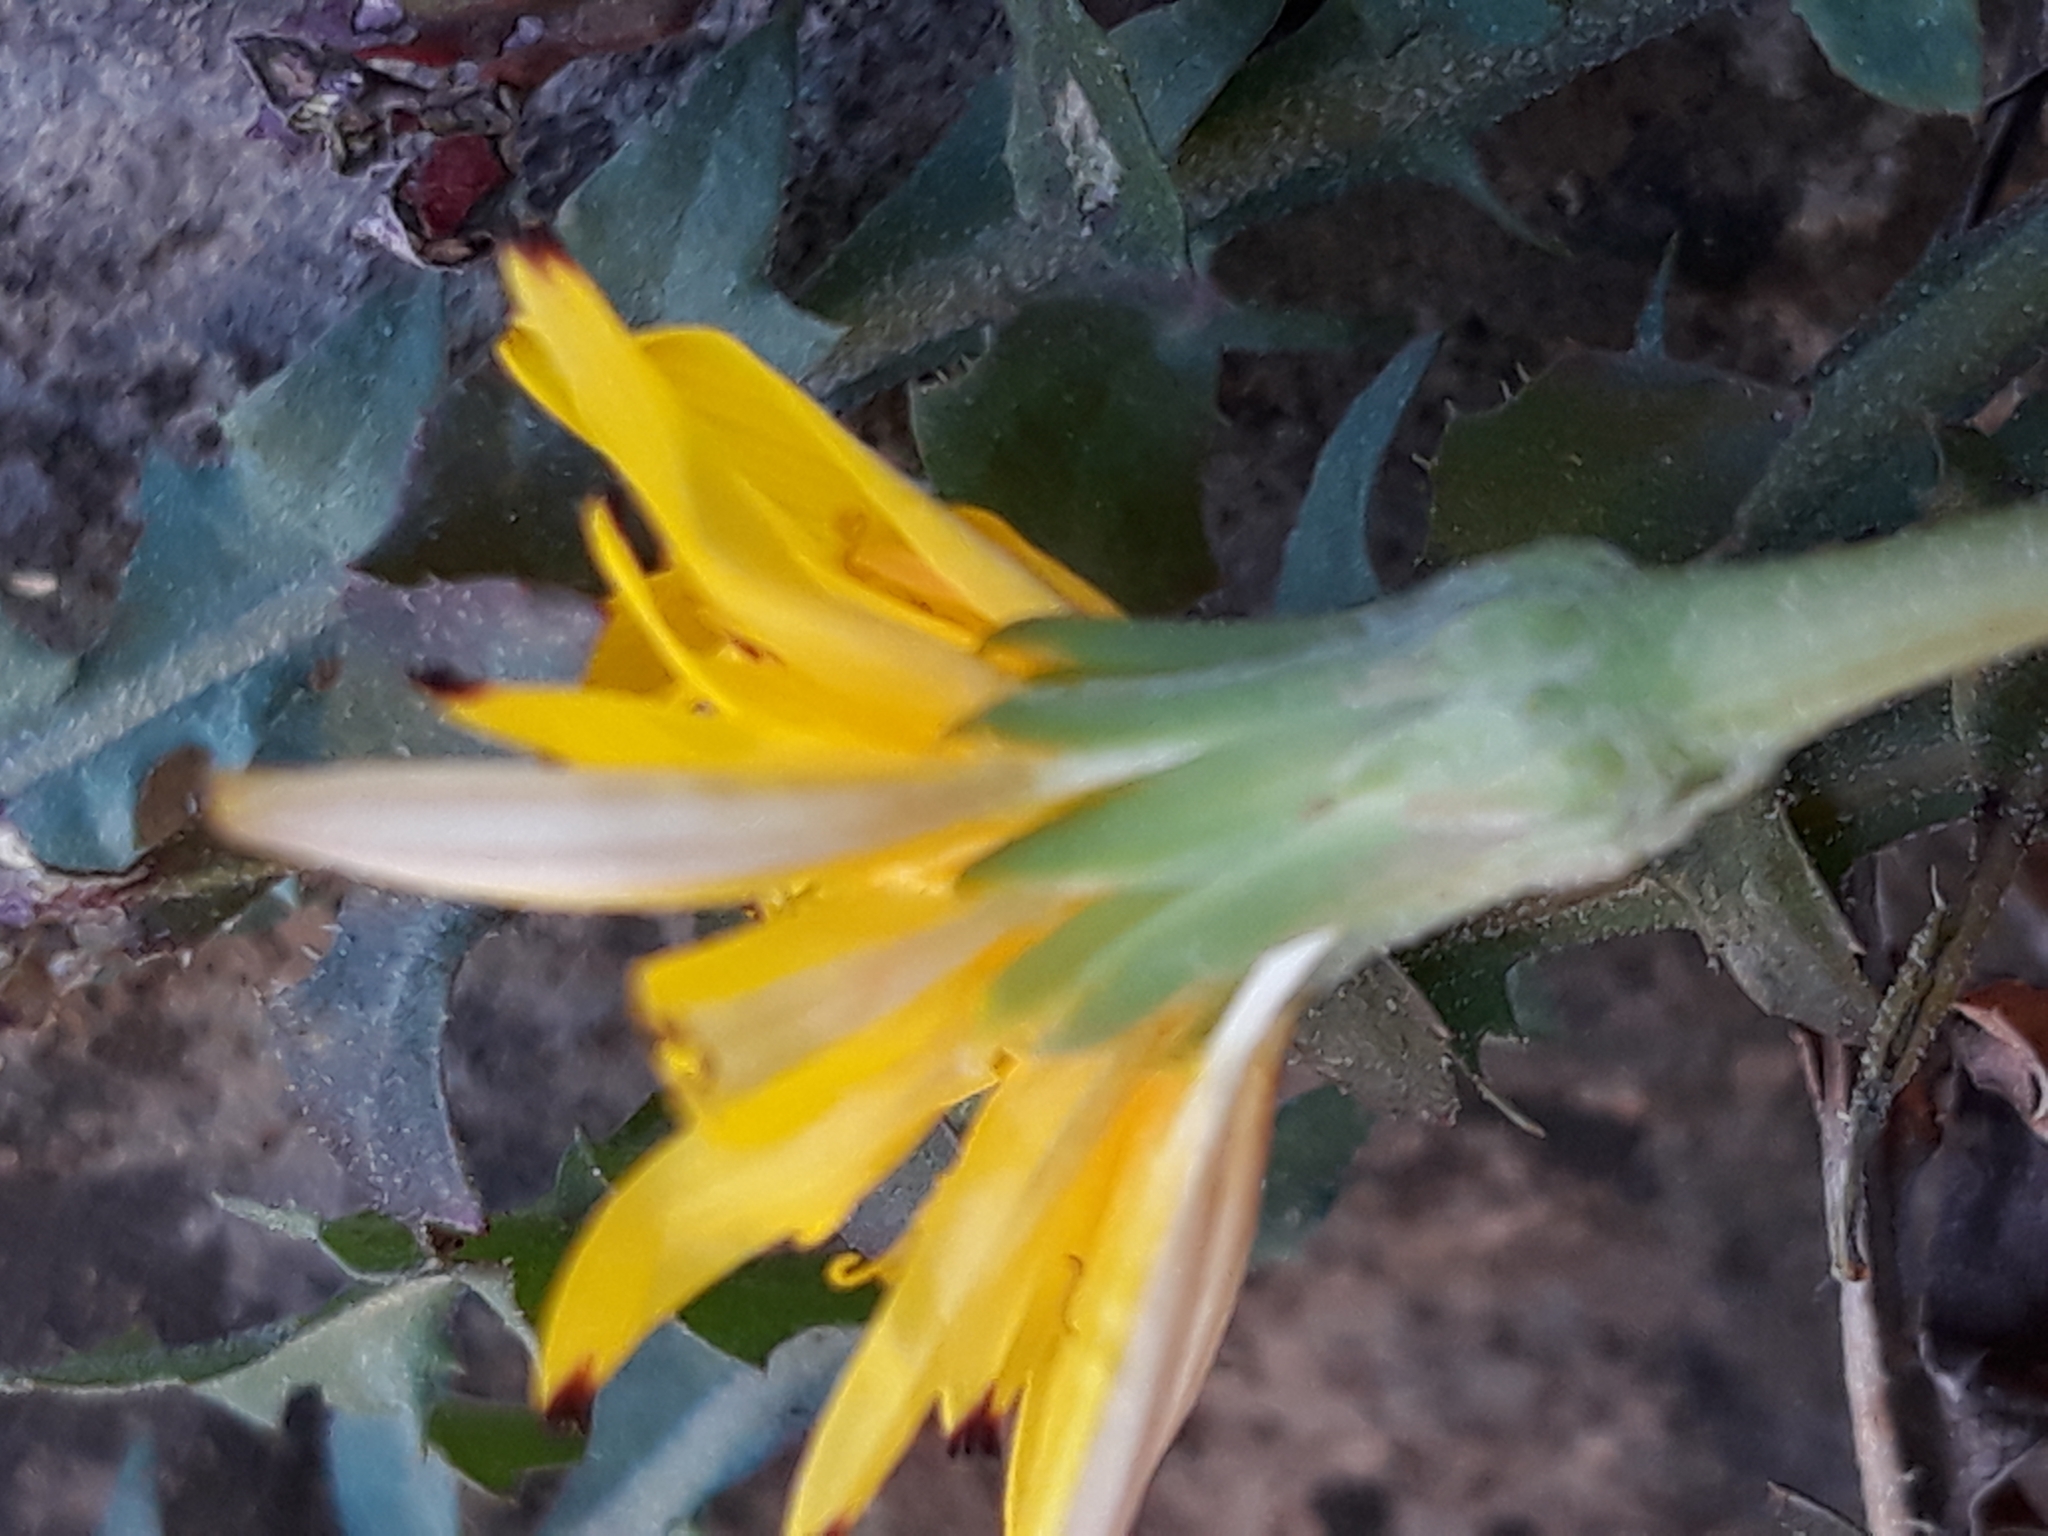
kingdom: Plantae
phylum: Tracheophyta
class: Magnoliopsida
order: Asterales
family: Asteraceae
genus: Hyoseris
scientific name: Hyoseris radiata
